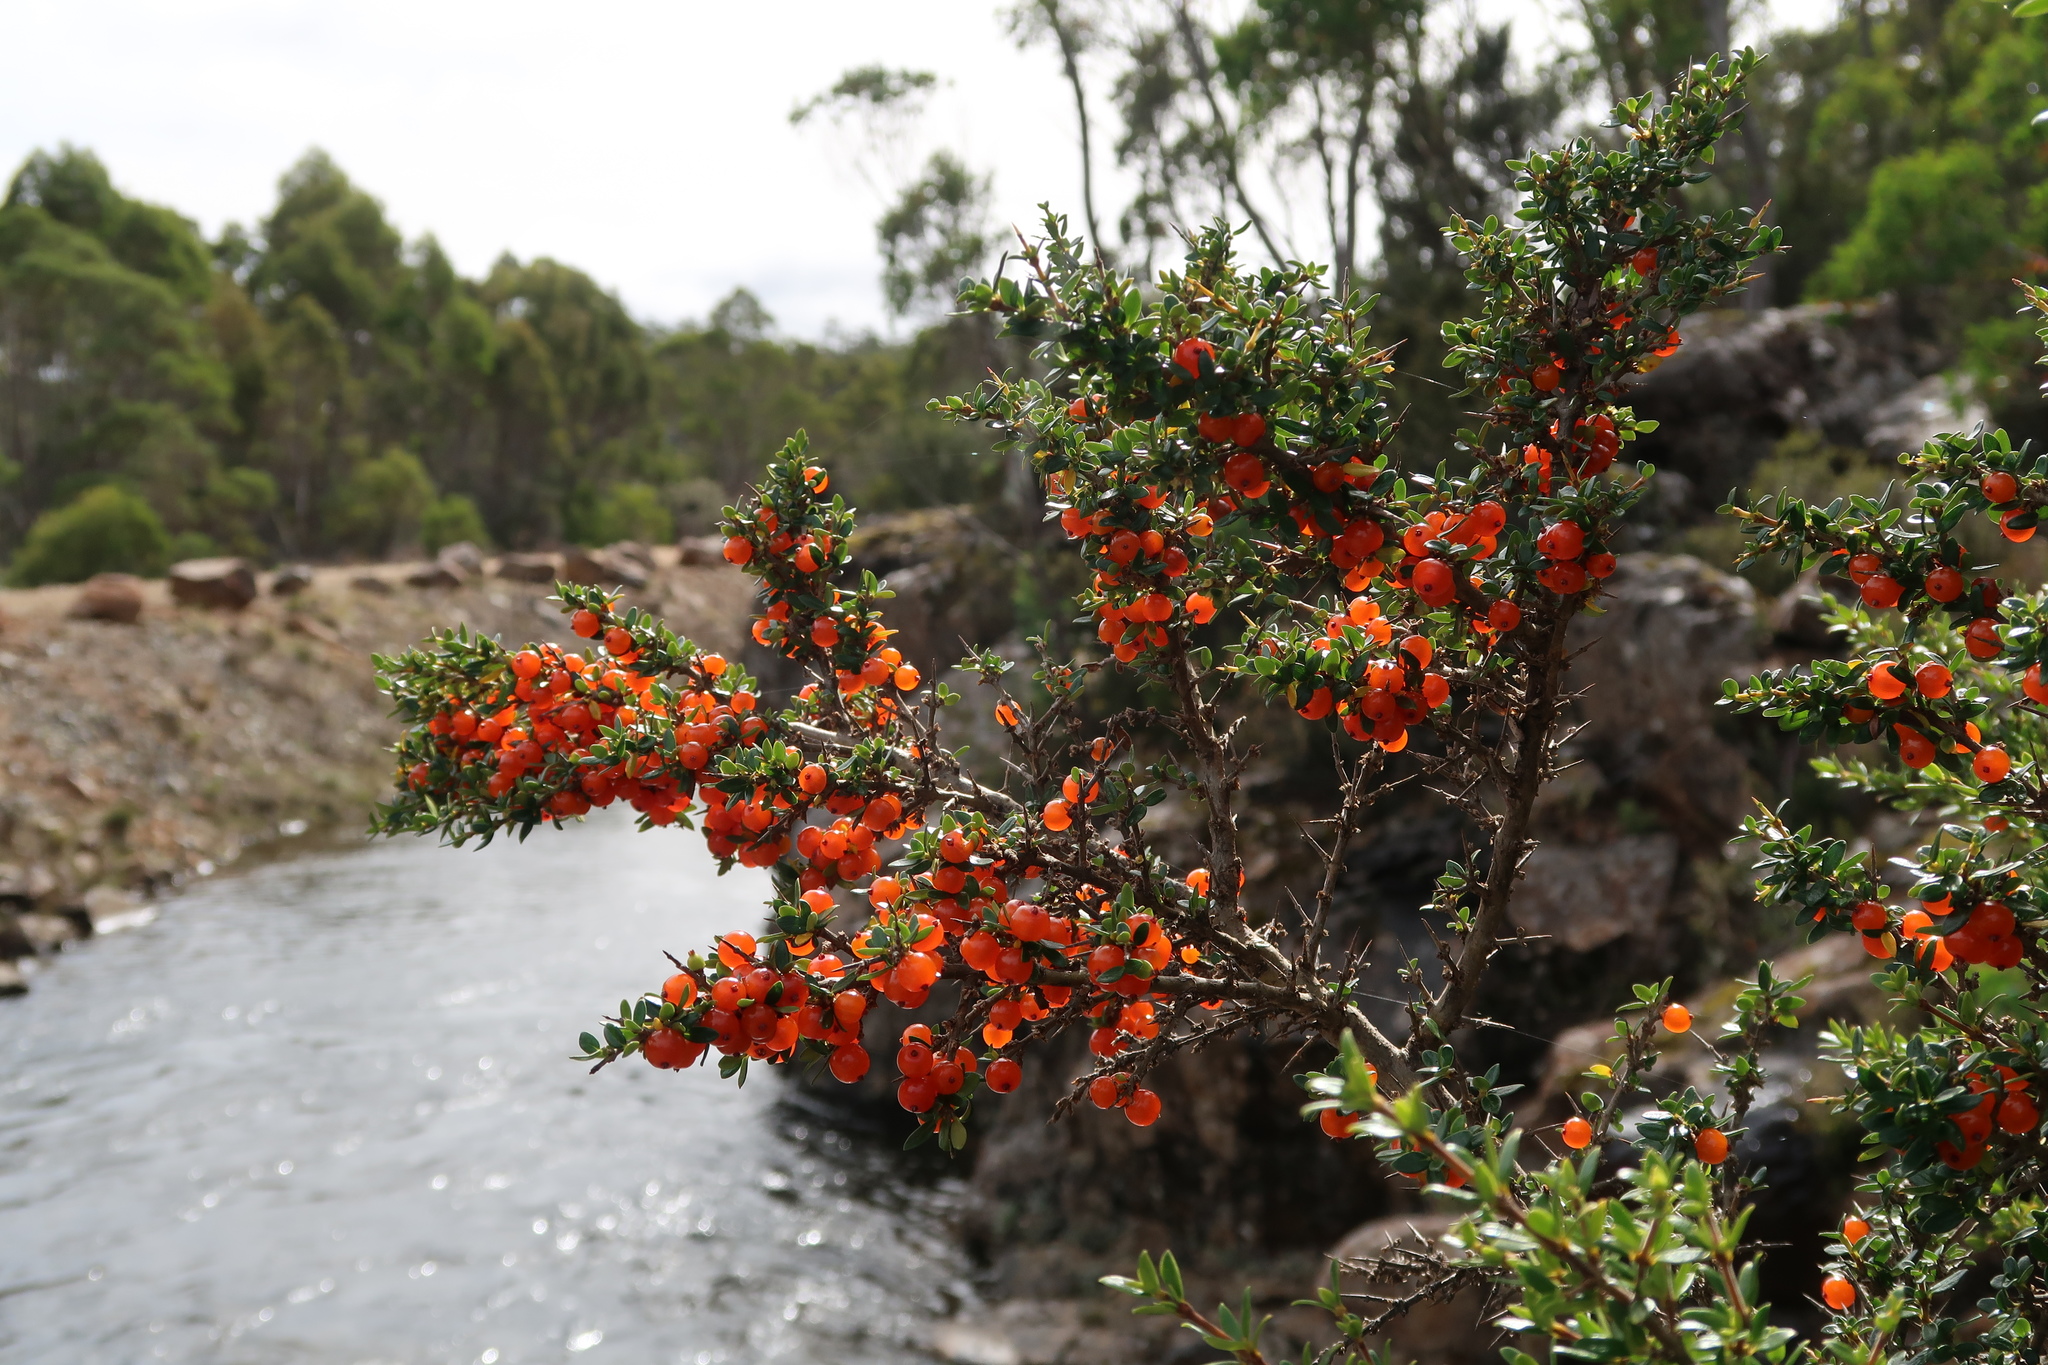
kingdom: Plantae
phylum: Tracheophyta
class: Magnoliopsida
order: Gentianales
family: Rubiaceae
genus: Coprosma
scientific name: Coprosma nitida
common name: Shining coprosma
